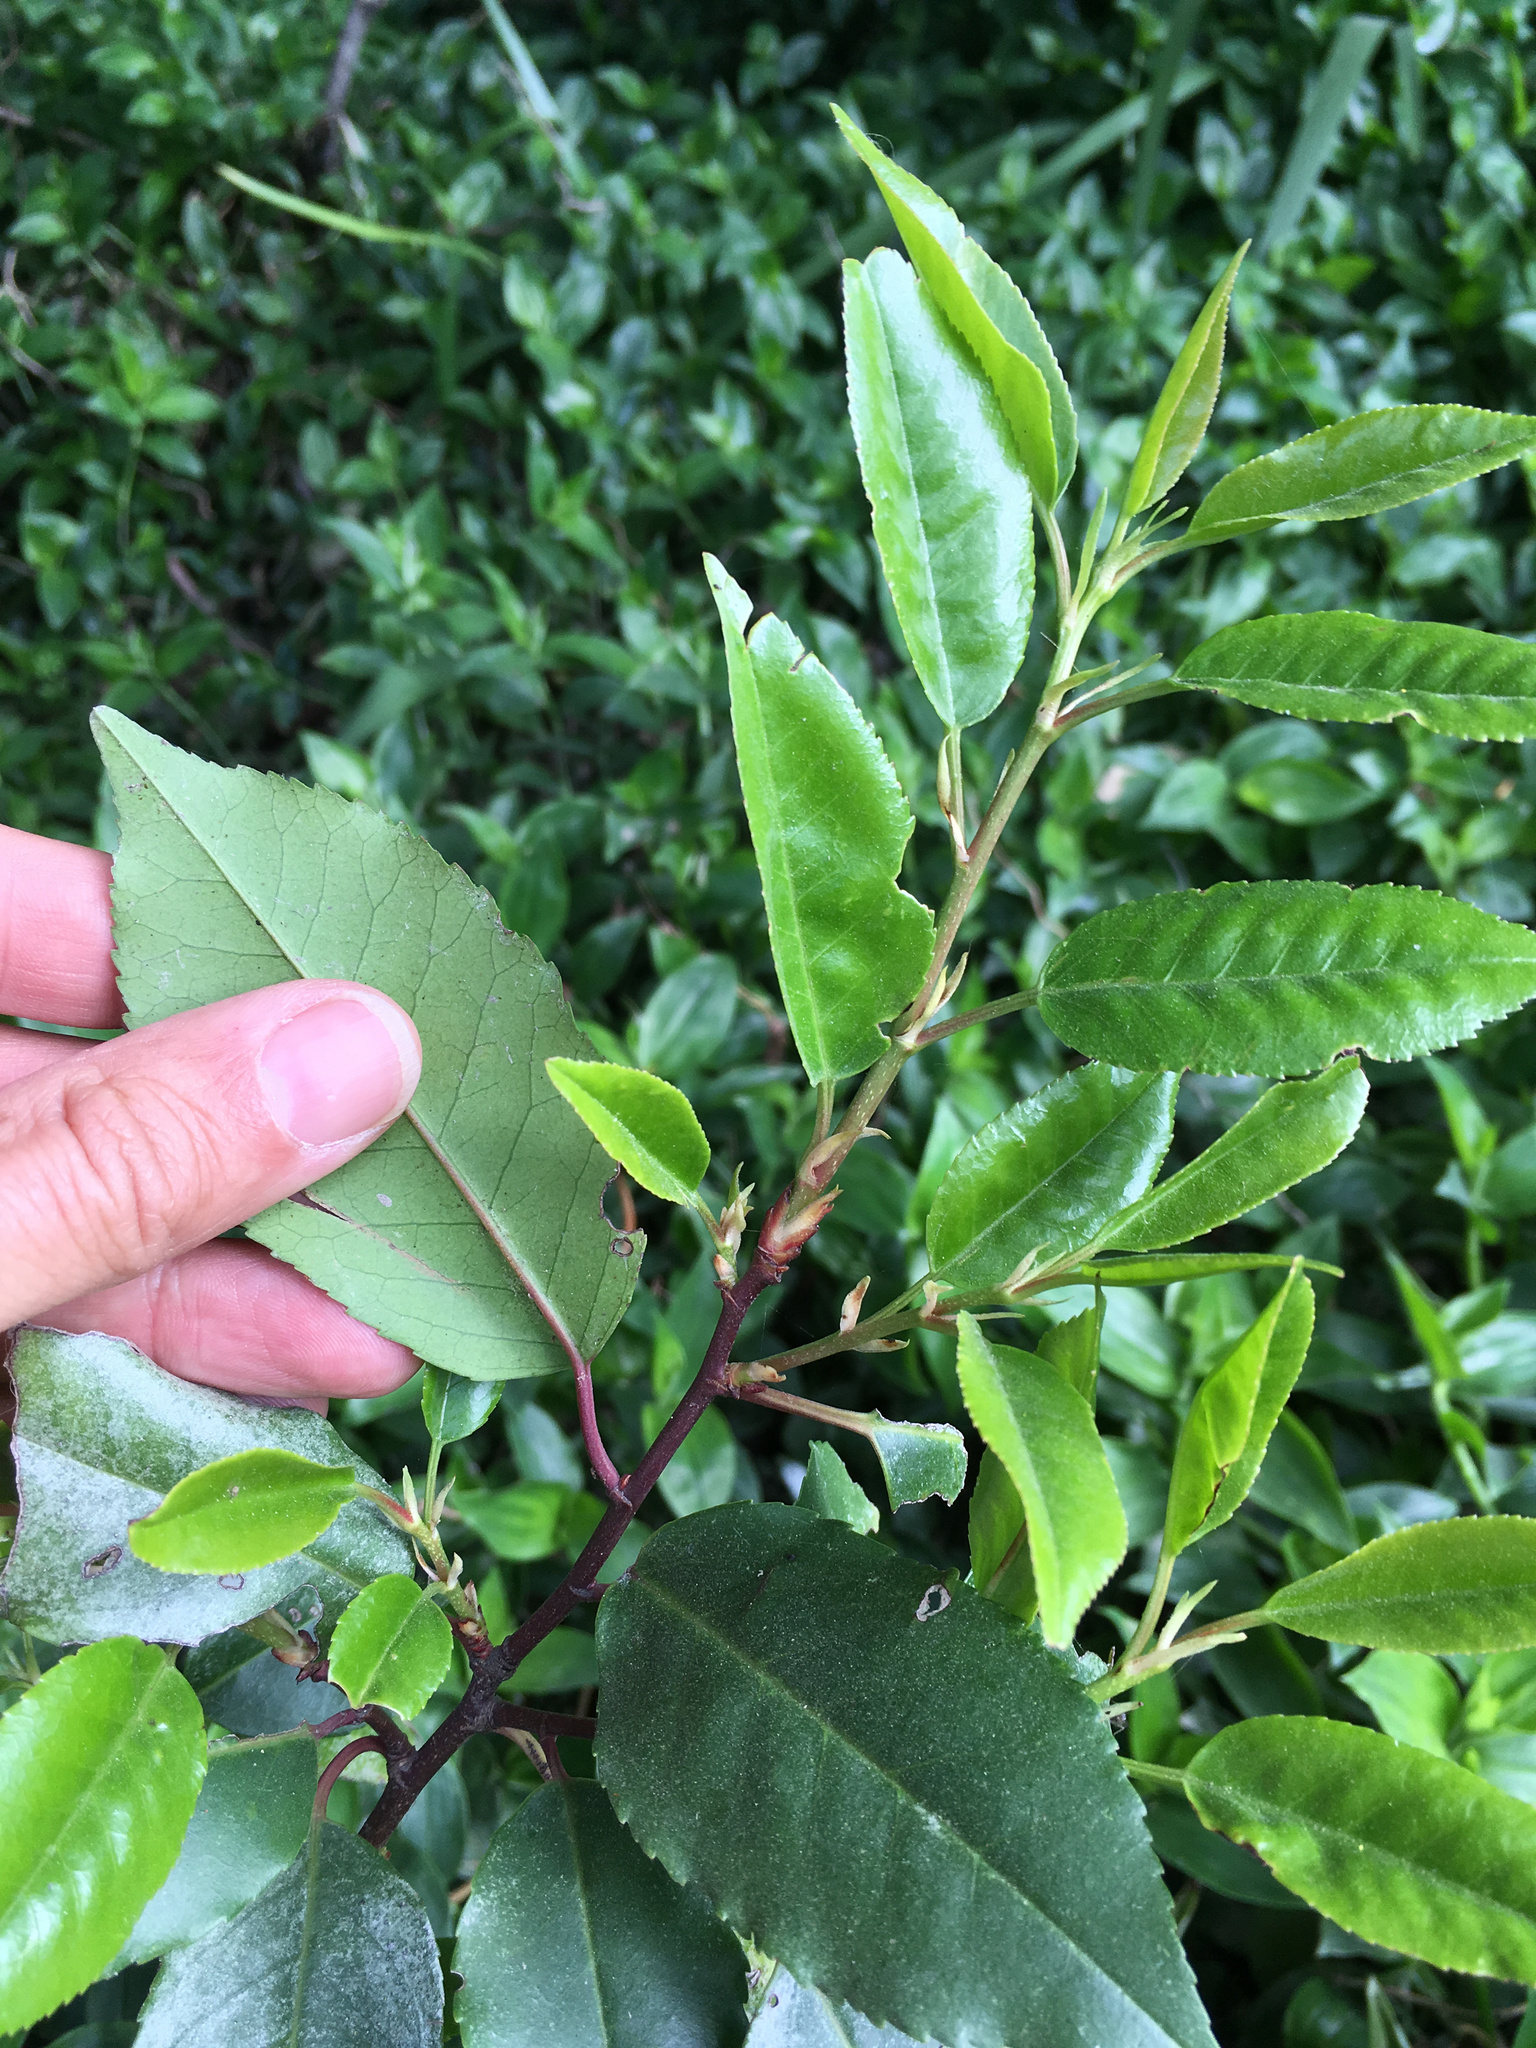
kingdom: Plantae
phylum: Tracheophyta
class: Magnoliopsida
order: Rosales
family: Rosaceae
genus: Prunus
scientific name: Prunus lusitanica
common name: Portugal laurel
